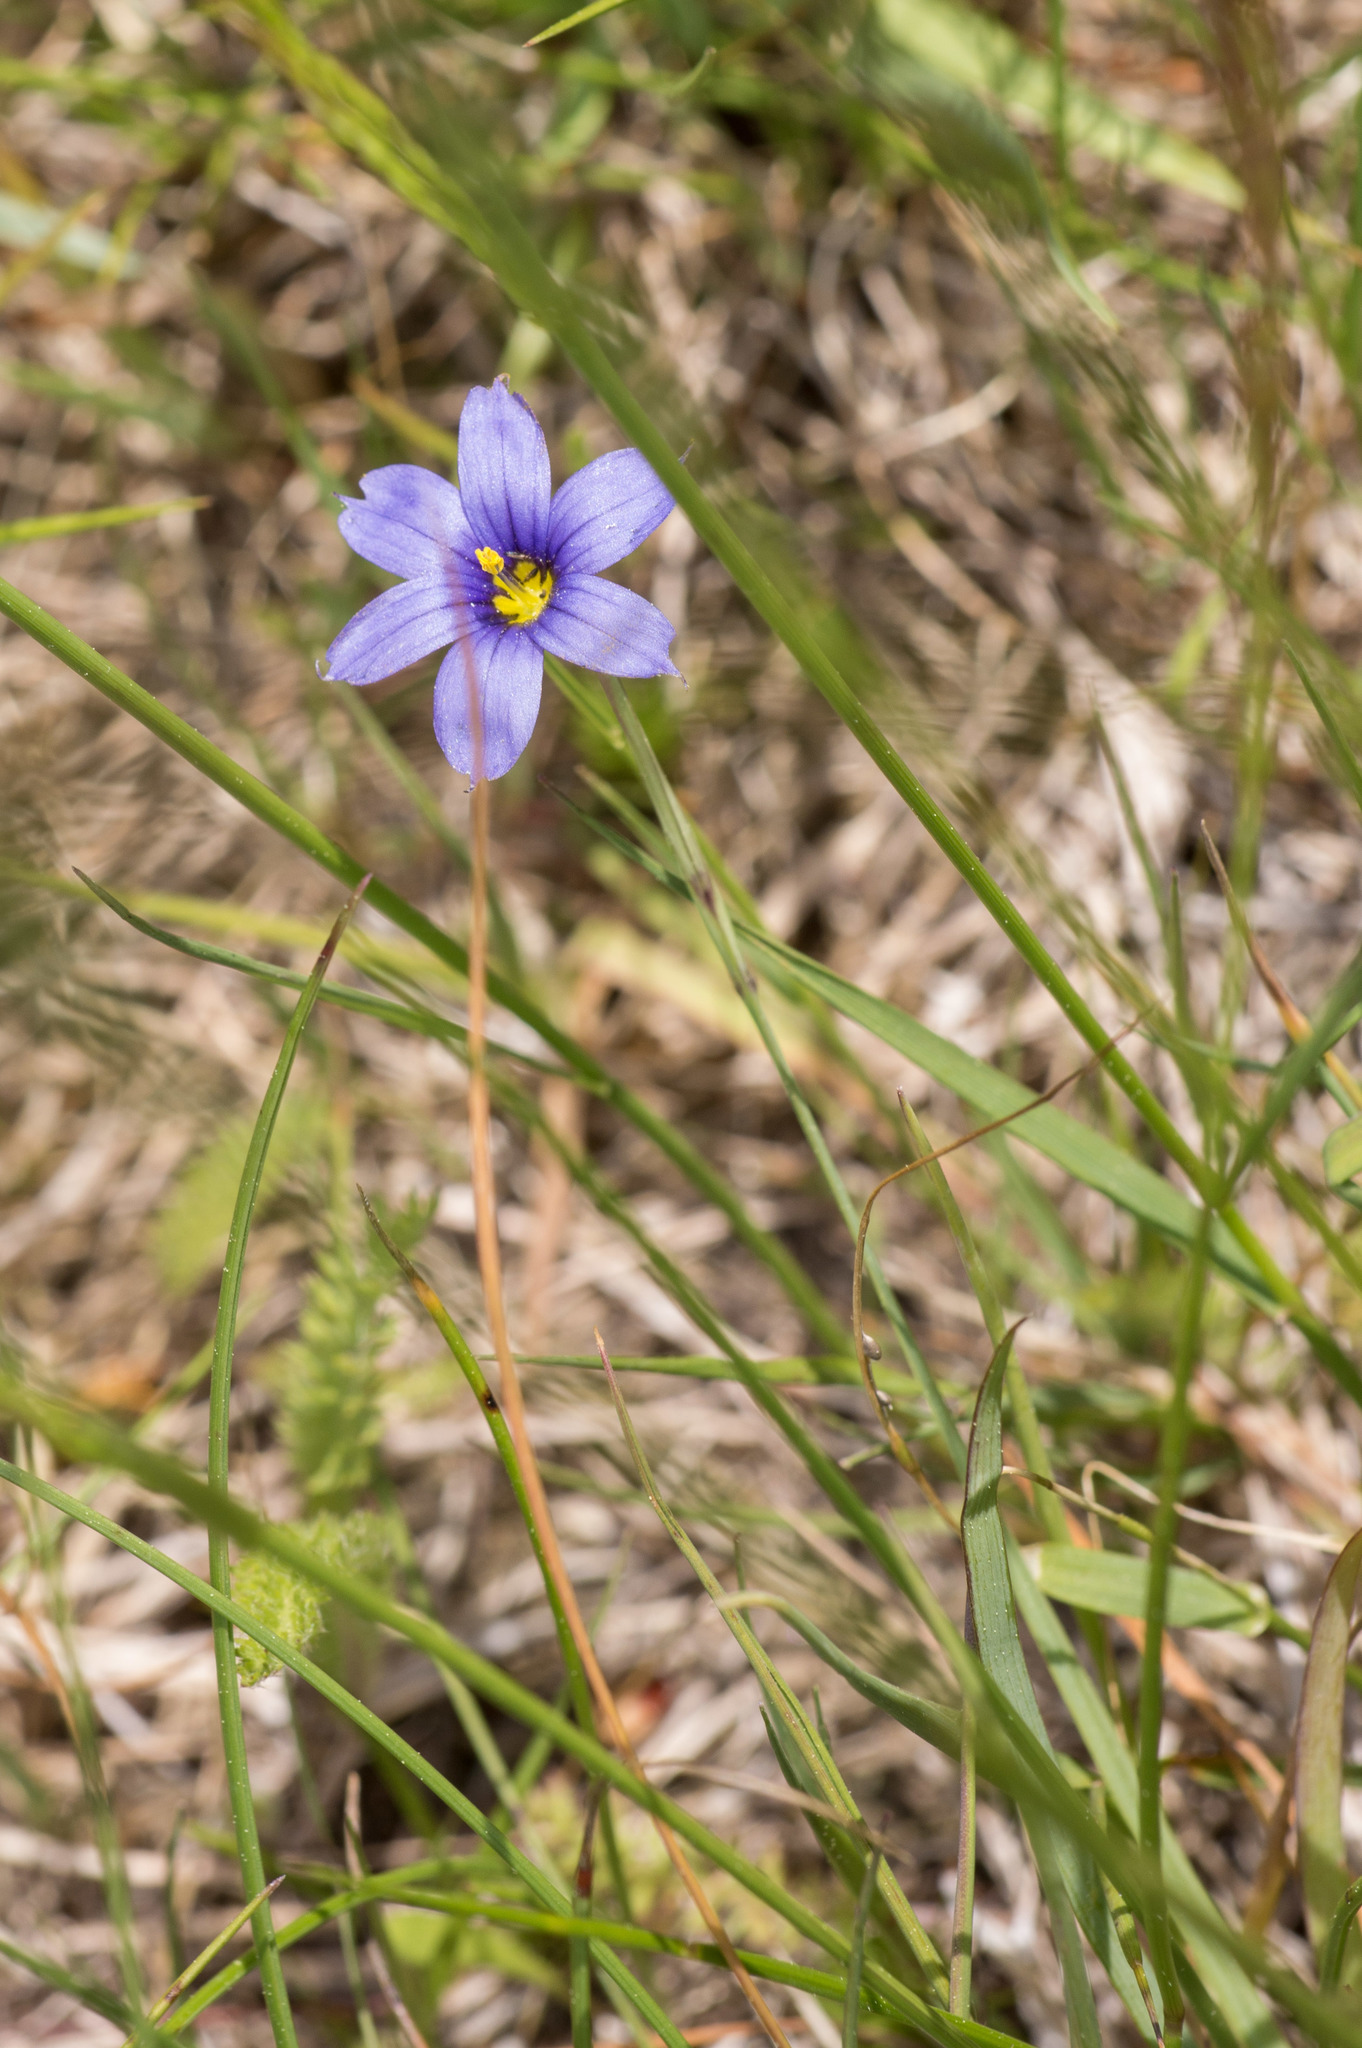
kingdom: Plantae
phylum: Tracheophyta
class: Liliopsida
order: Asparagales
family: Iridaceae
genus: Sisyrinchium
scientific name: Sisyrinchium
